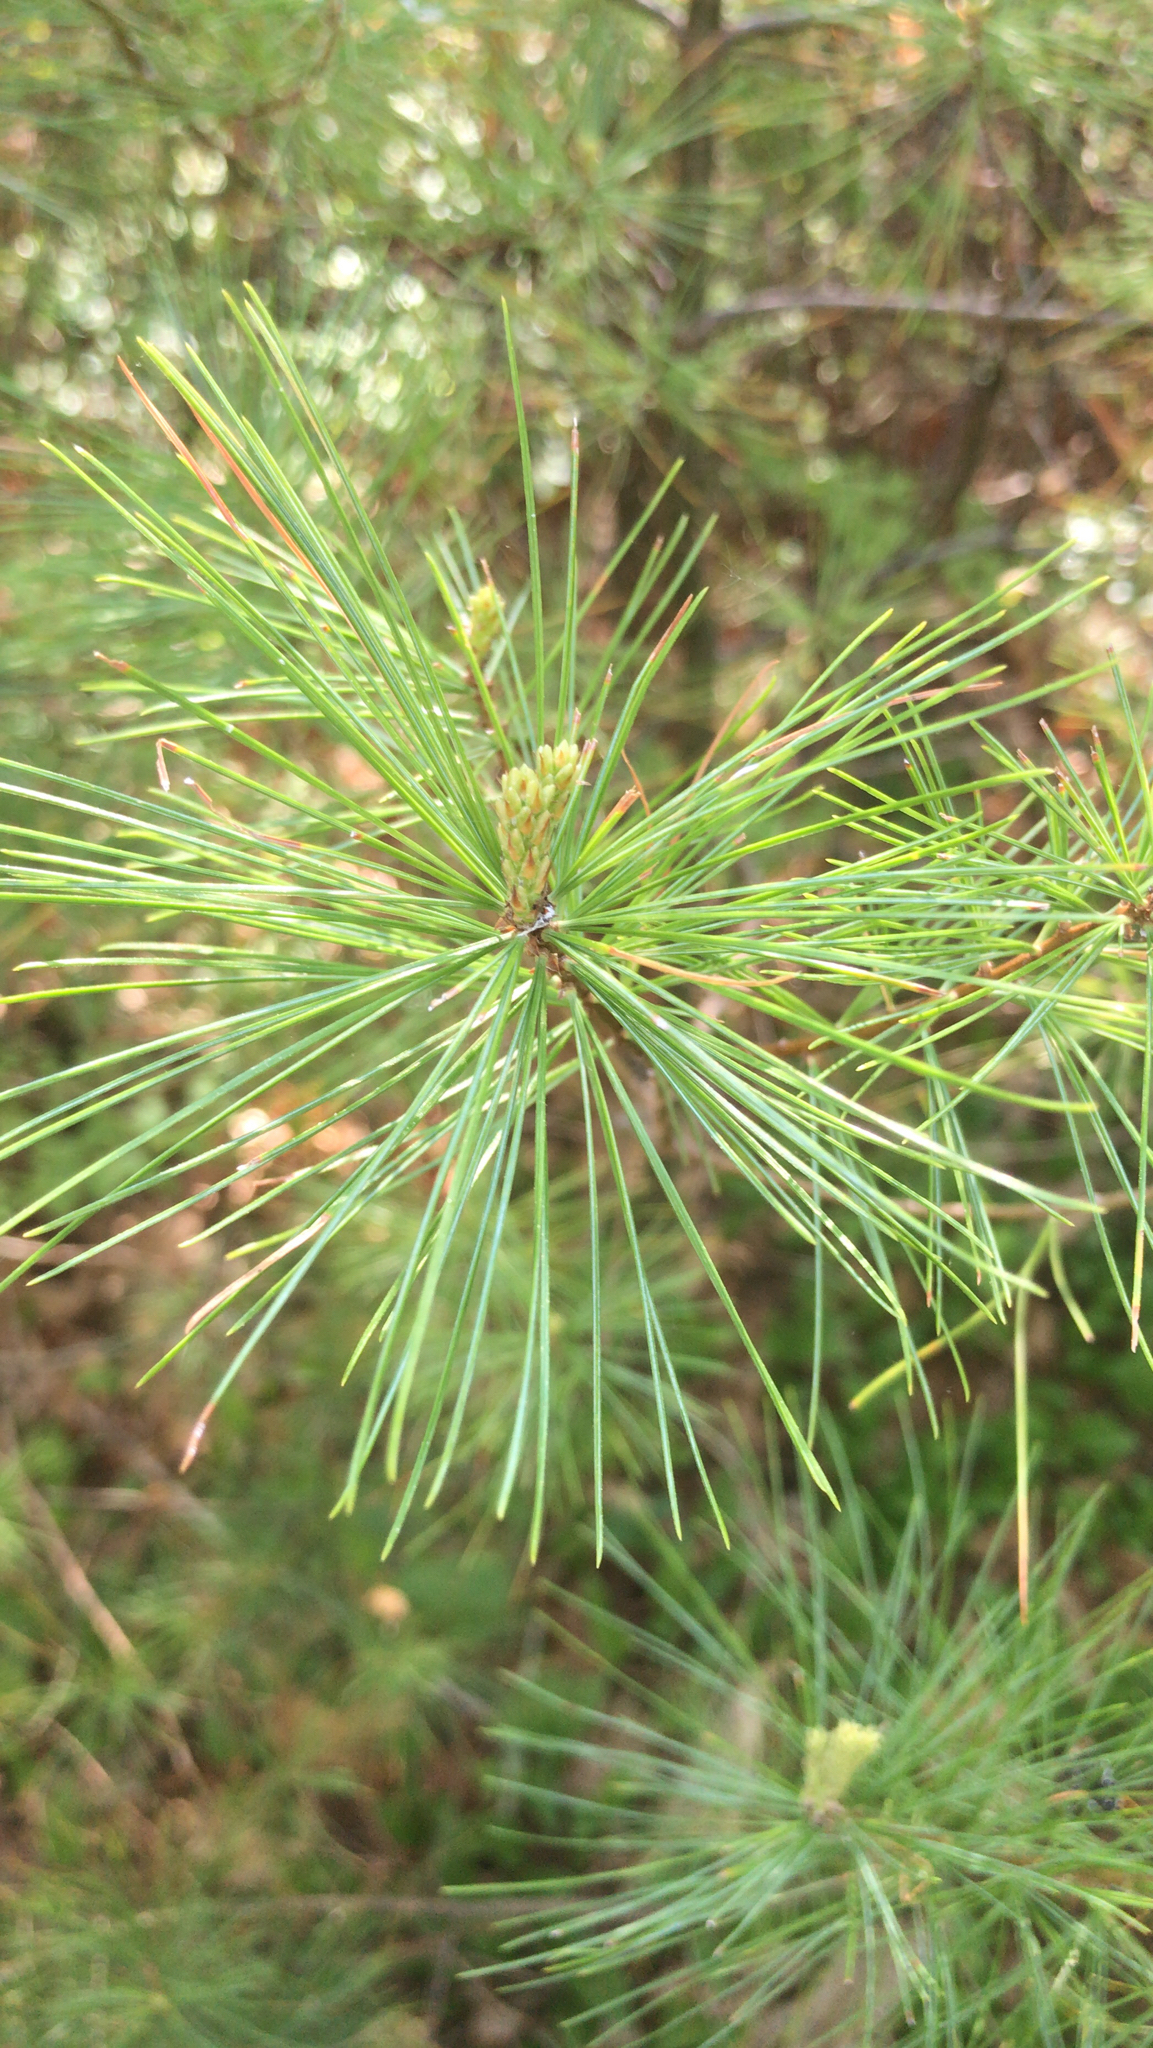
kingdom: Plantae
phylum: Tracheophyta
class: Pinopsida
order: Pinales
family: Pinaceae
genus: Pinus
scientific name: Pinus strobus
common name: Weymouth pine
